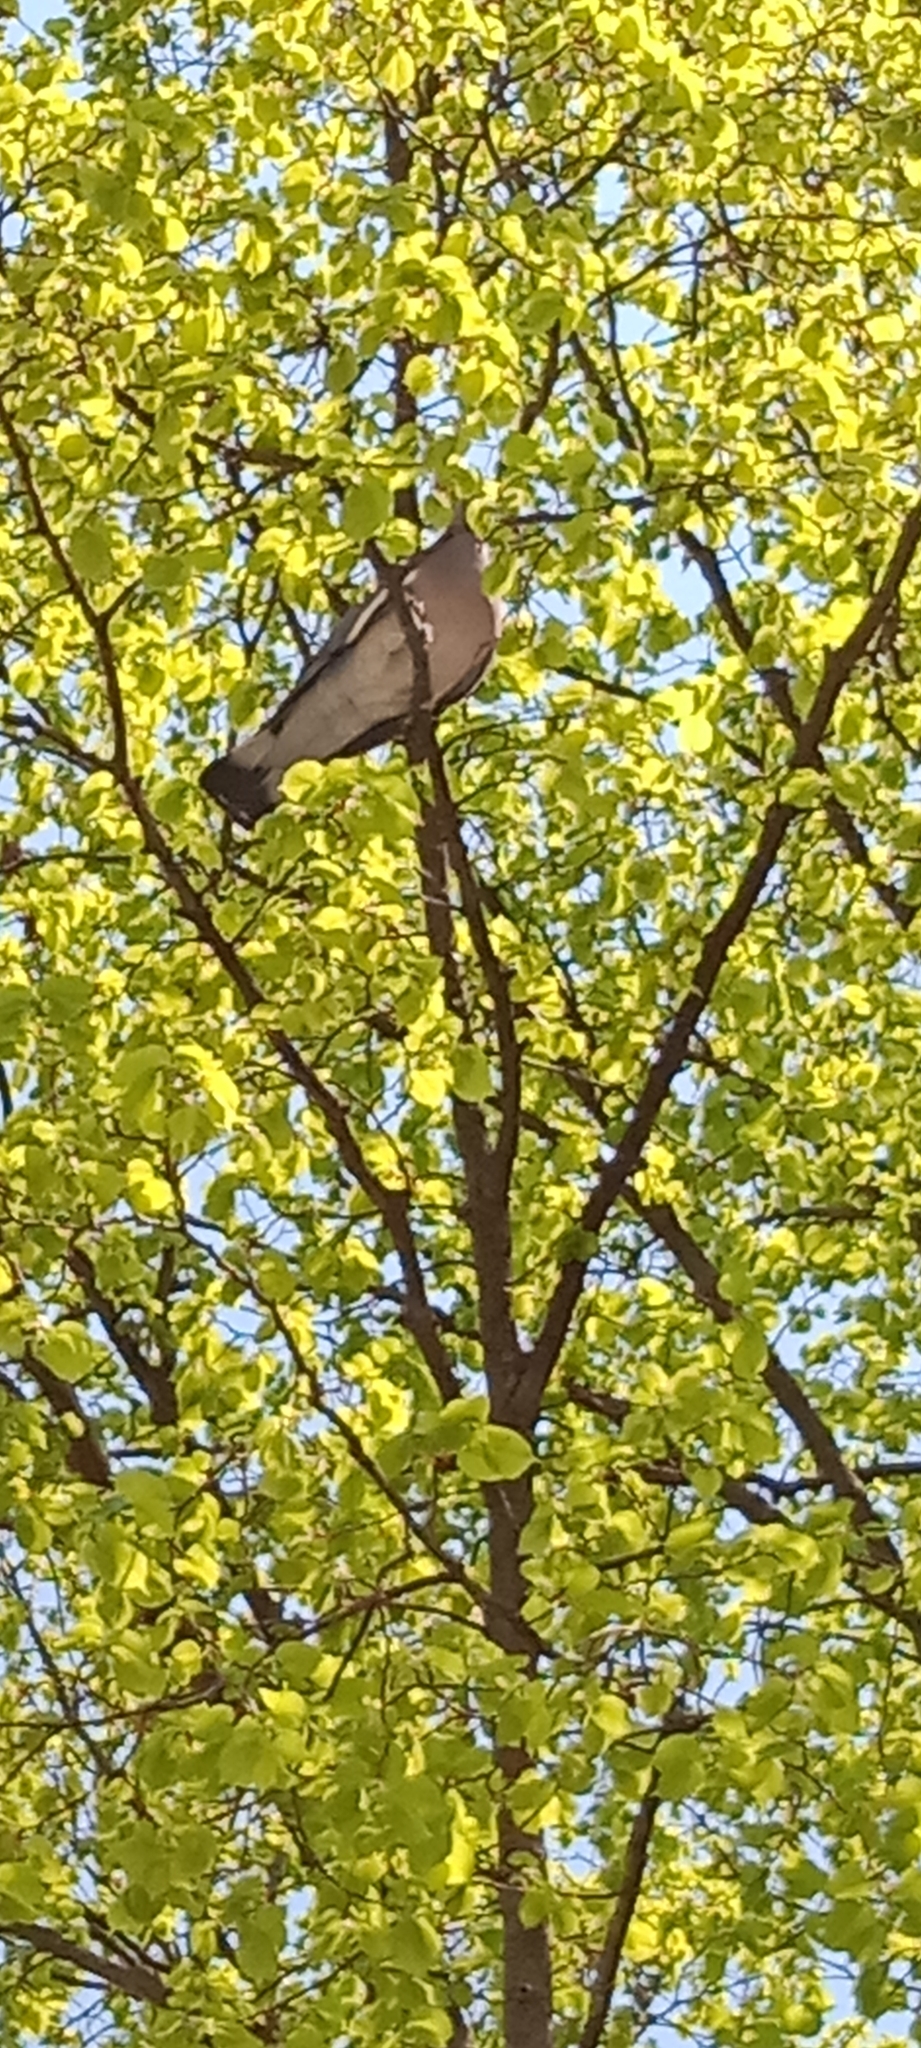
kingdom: Animalia
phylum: Chordata
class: Aves
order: Columbiformes
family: Columbidae
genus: Columba
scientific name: Columba palumbus
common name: Common wood pigeon
